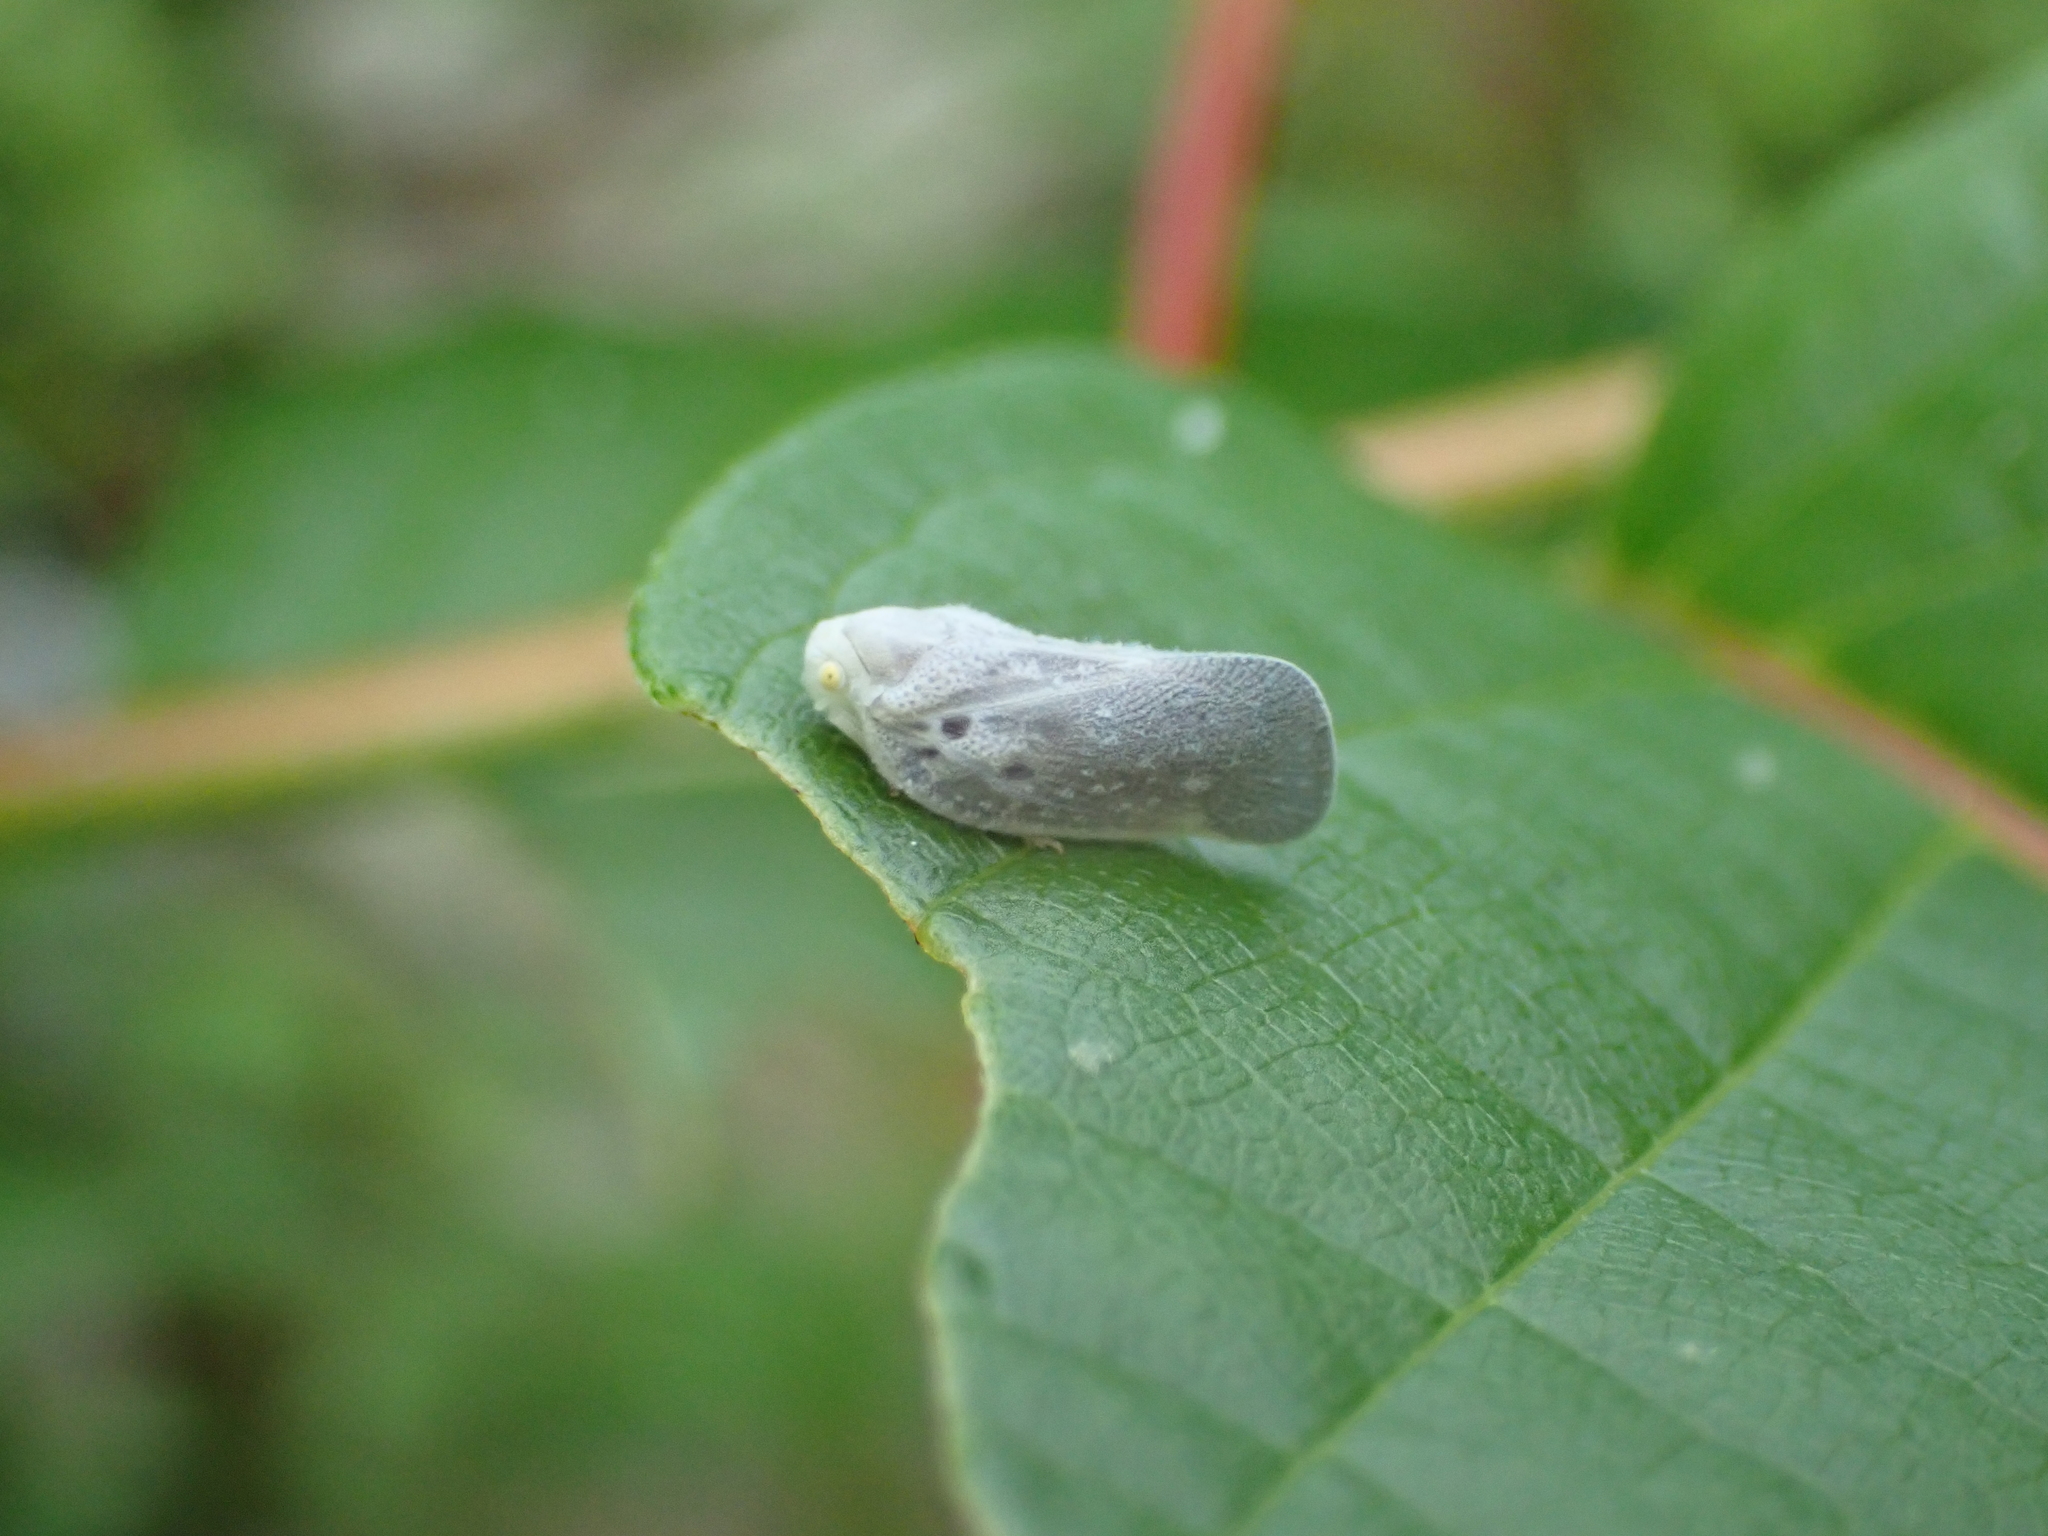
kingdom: Animalia
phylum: Arthropoda
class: Insecta
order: Hemiptera
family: Flatidae
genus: Metcalfa
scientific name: Metcalfa pruinosa
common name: Citrus flatid planthopper
